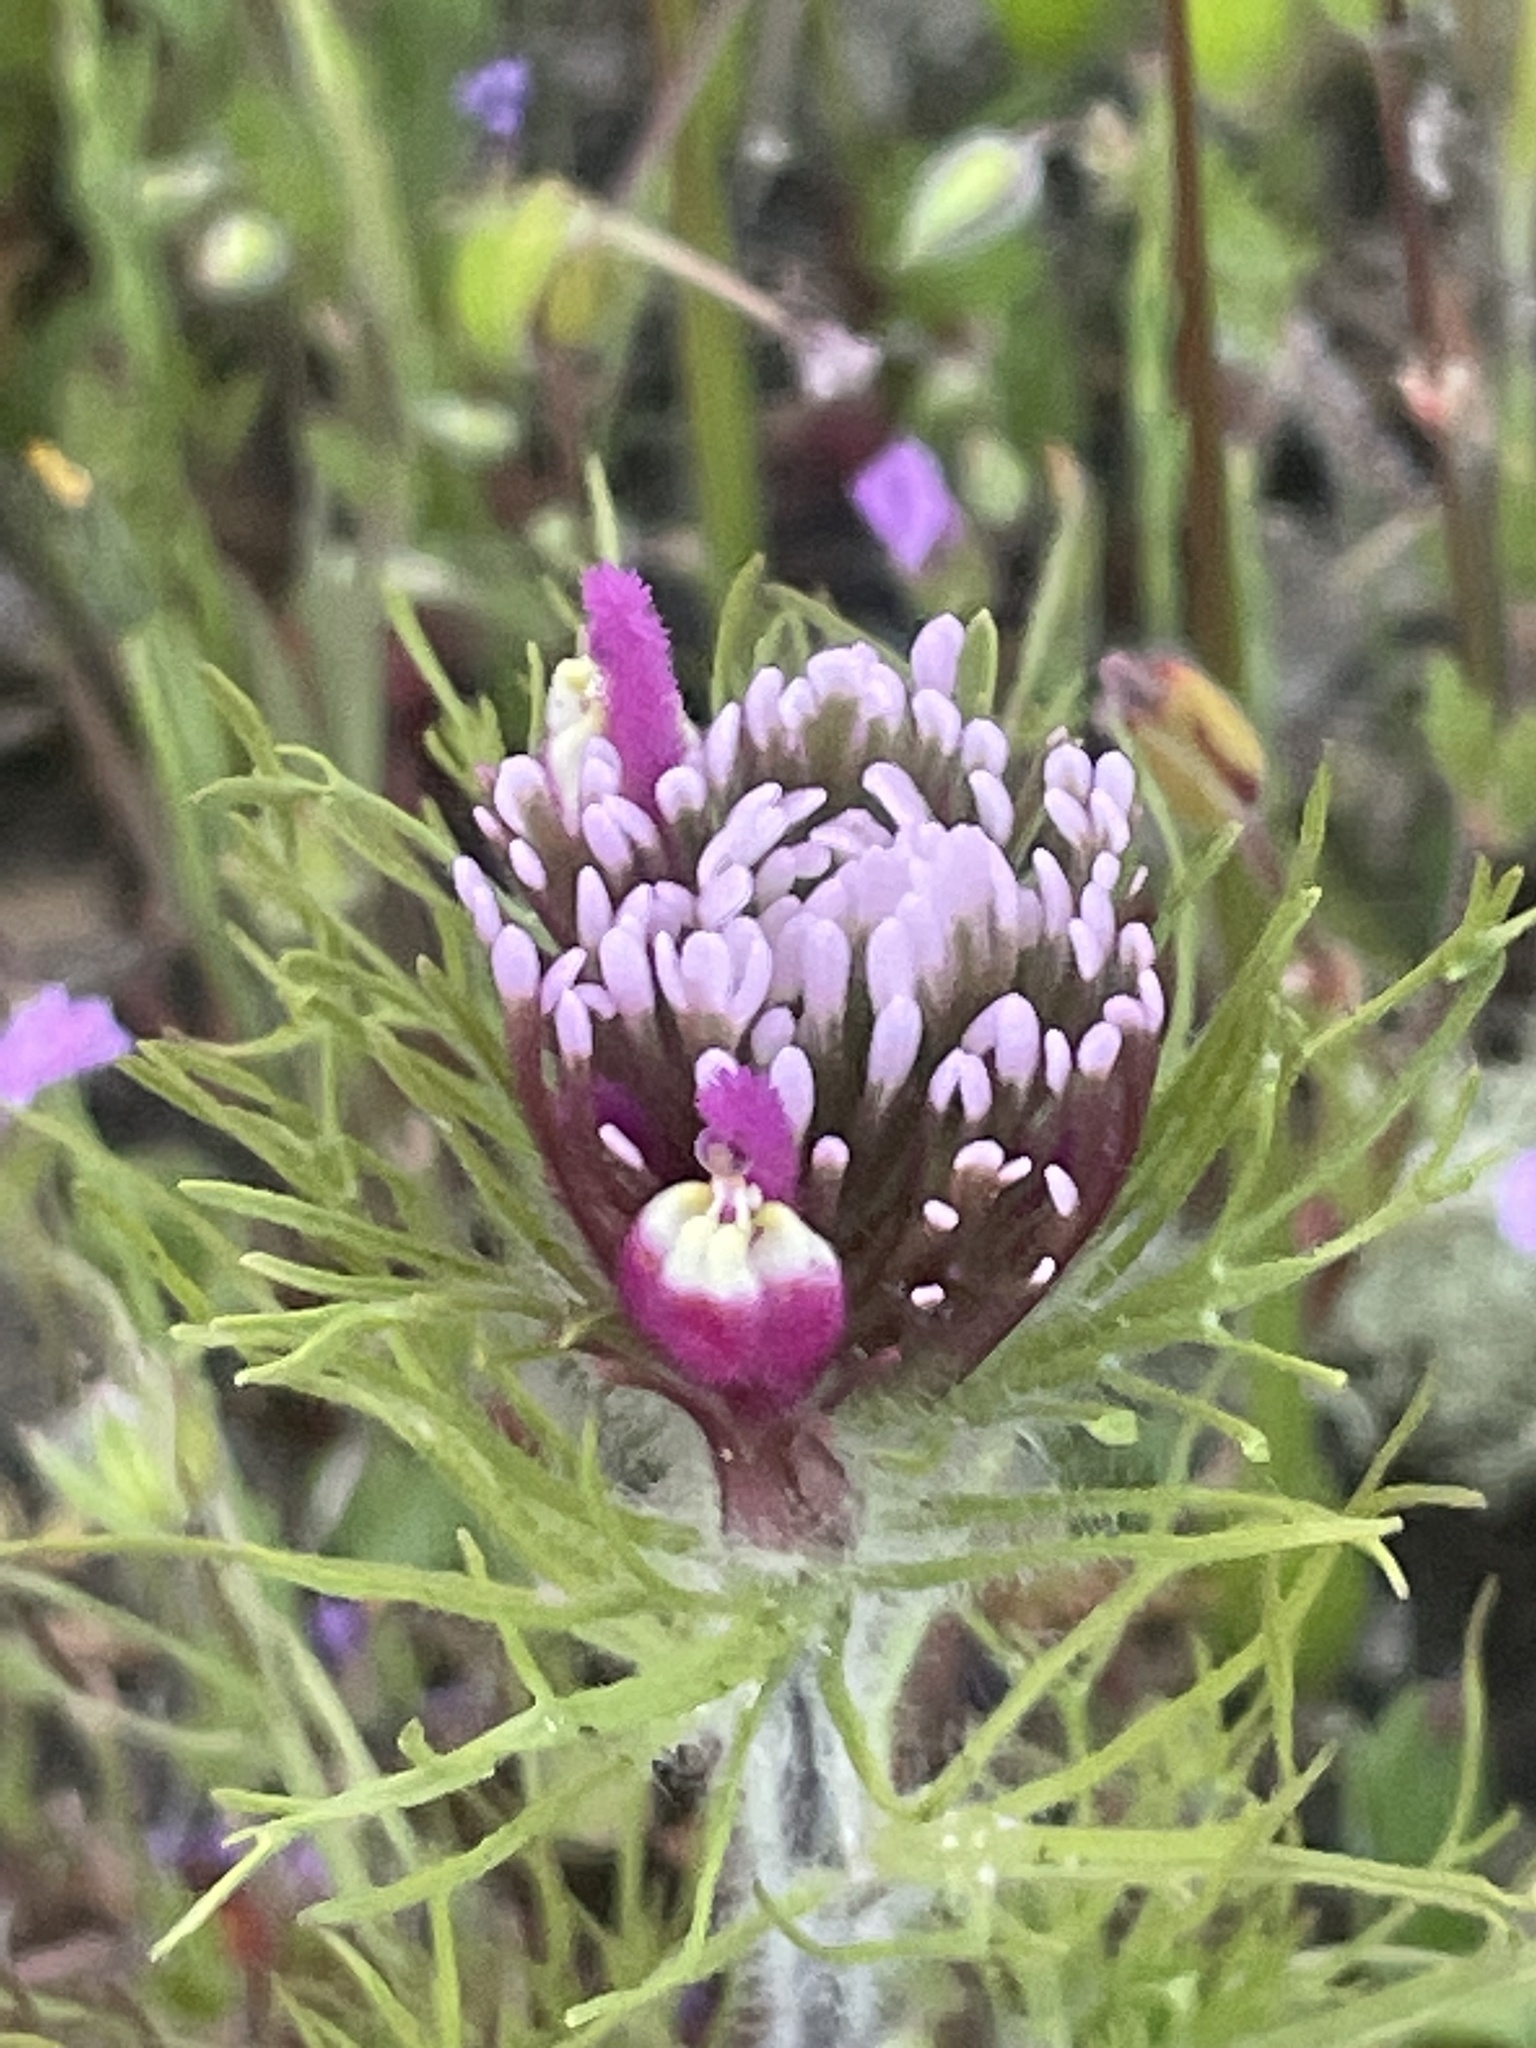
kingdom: Plantae
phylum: Tracheophyta
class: Magnoliopsida
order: Lamiales
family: Orobanchaceae
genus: Castilleja
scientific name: Castilleja exserta
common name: Purple owl-clover
